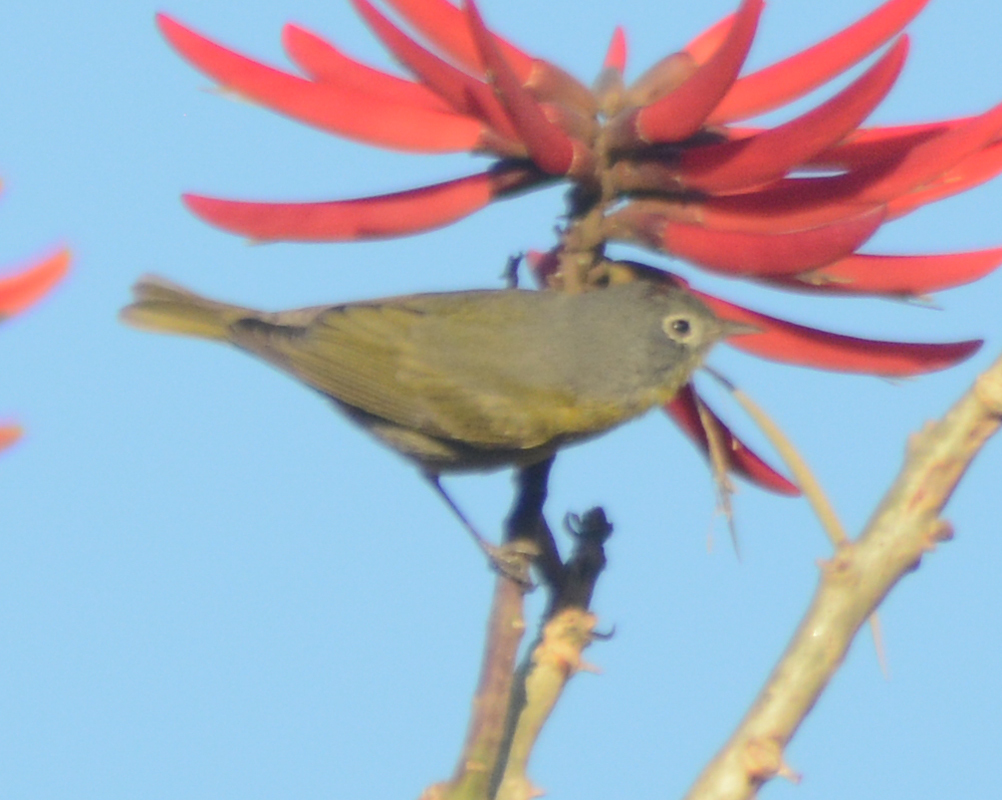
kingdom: Animalia
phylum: Chordata
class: Aves
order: Passeriformes
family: Parulidae
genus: Leiothlypis
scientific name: Leiothlypis ruficapilla
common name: Nashville warbler
